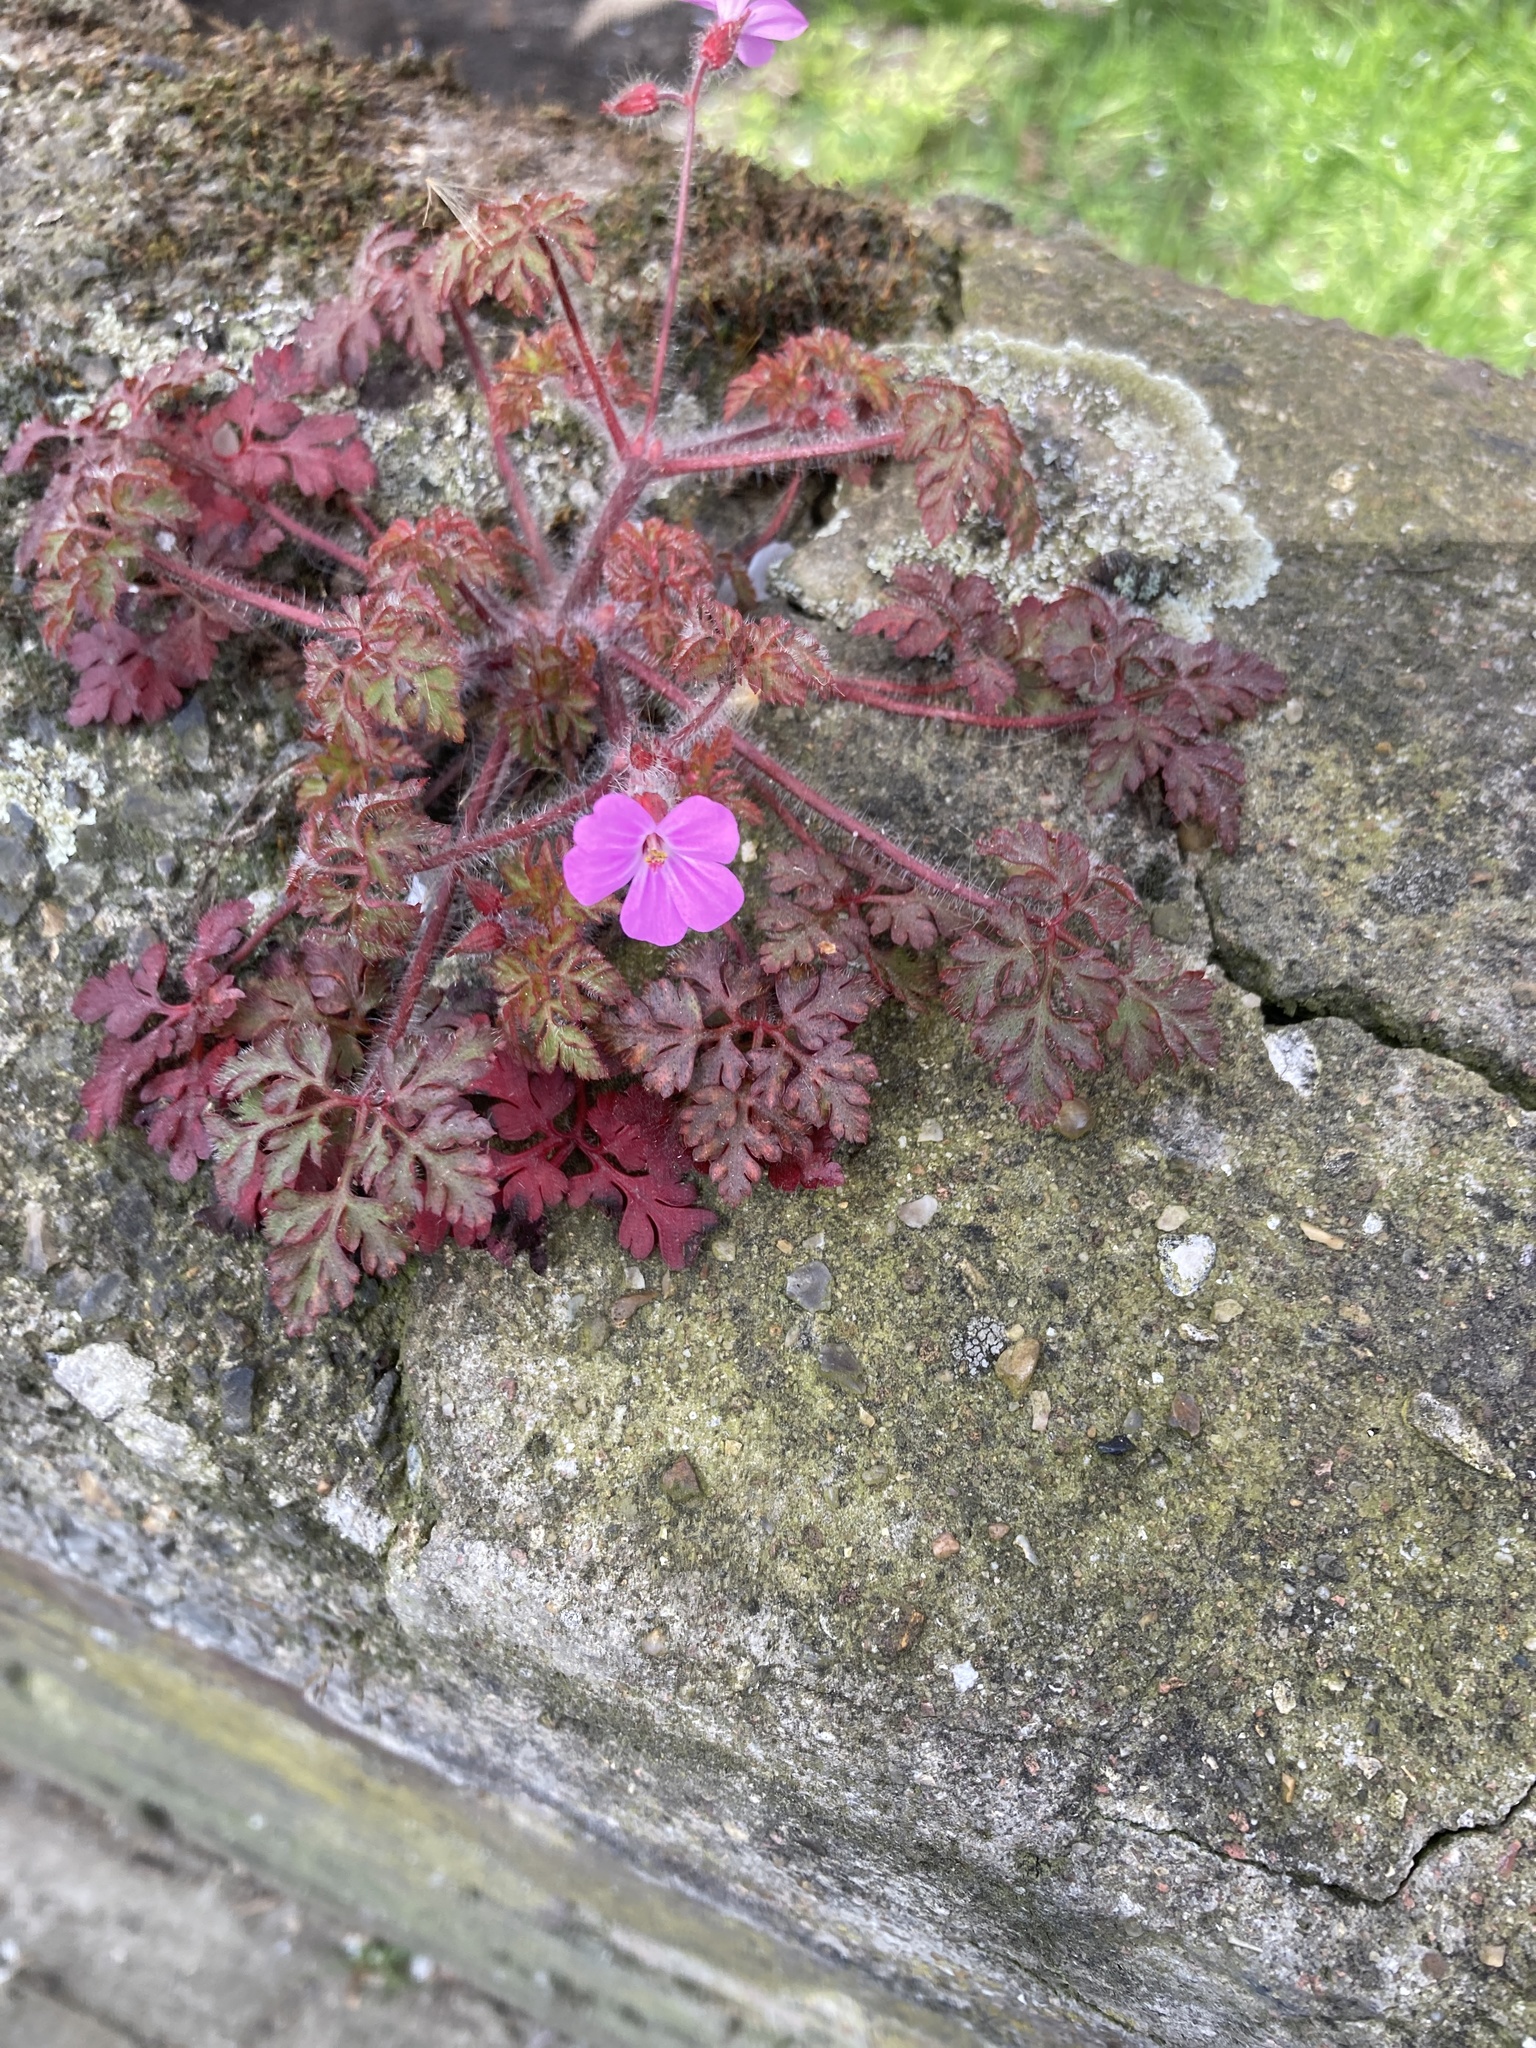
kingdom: Plantae
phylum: Tracheophyta
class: Magnoliopsida
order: Geraniales
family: Geraniaceae
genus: Geranium
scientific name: Geranium robertianum
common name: Herb-robert
